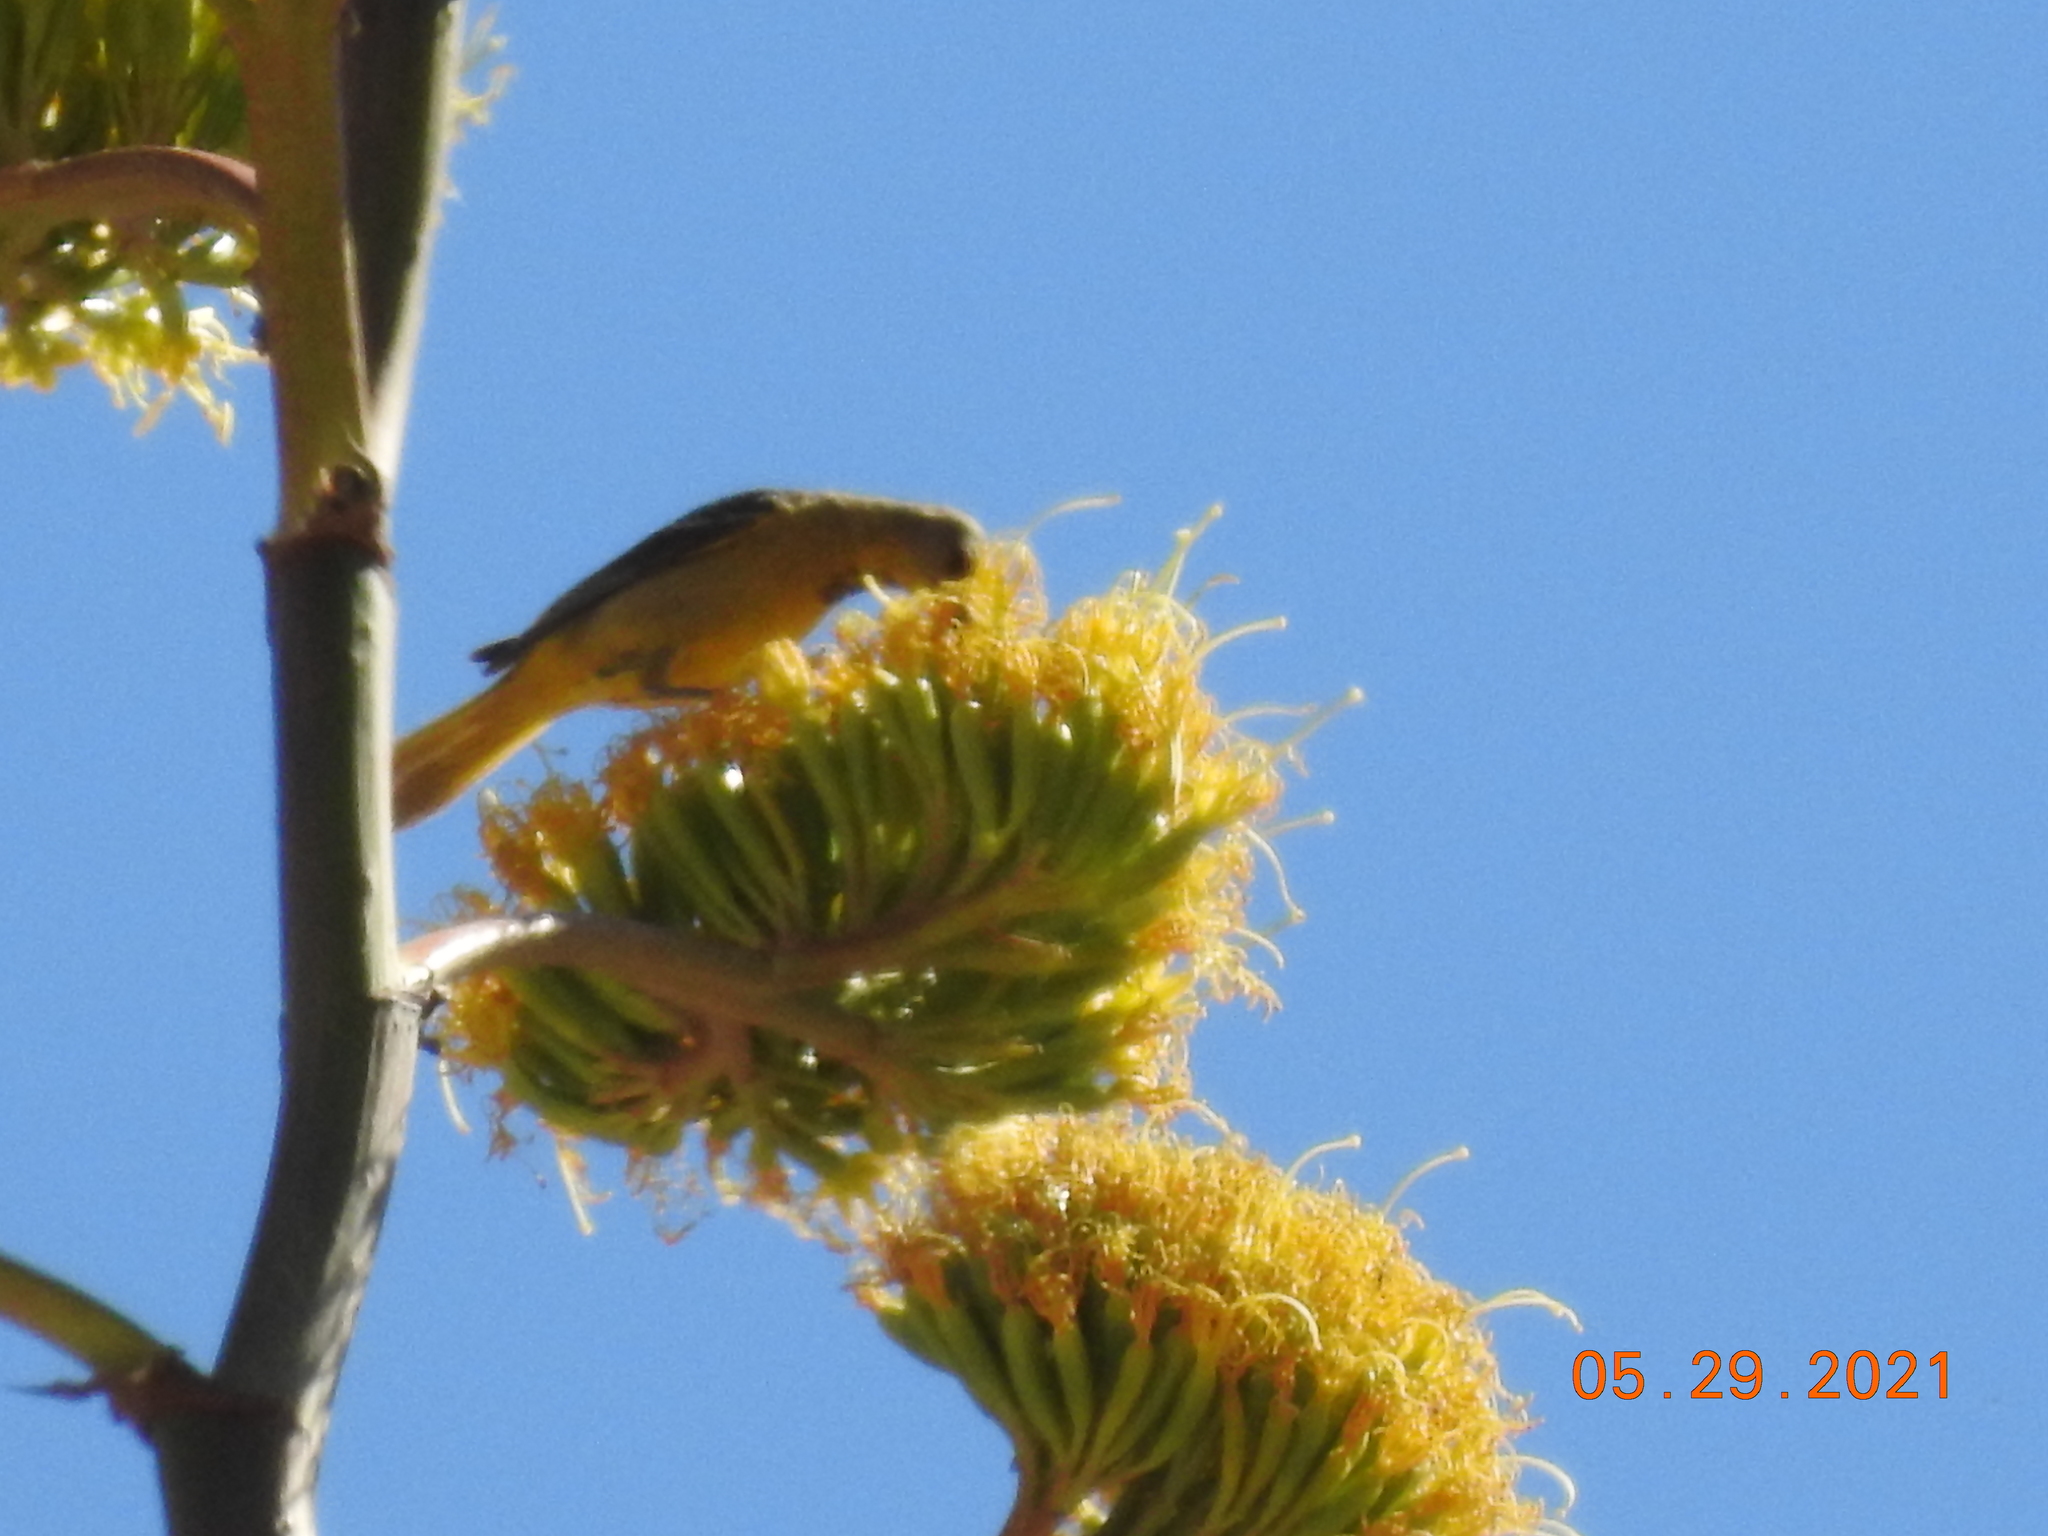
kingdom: Animalia
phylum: Chordata
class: Aves
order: Passeriformes
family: Icteridae
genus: Icterus
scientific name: Icterus parisorum
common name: Scott's oriole
